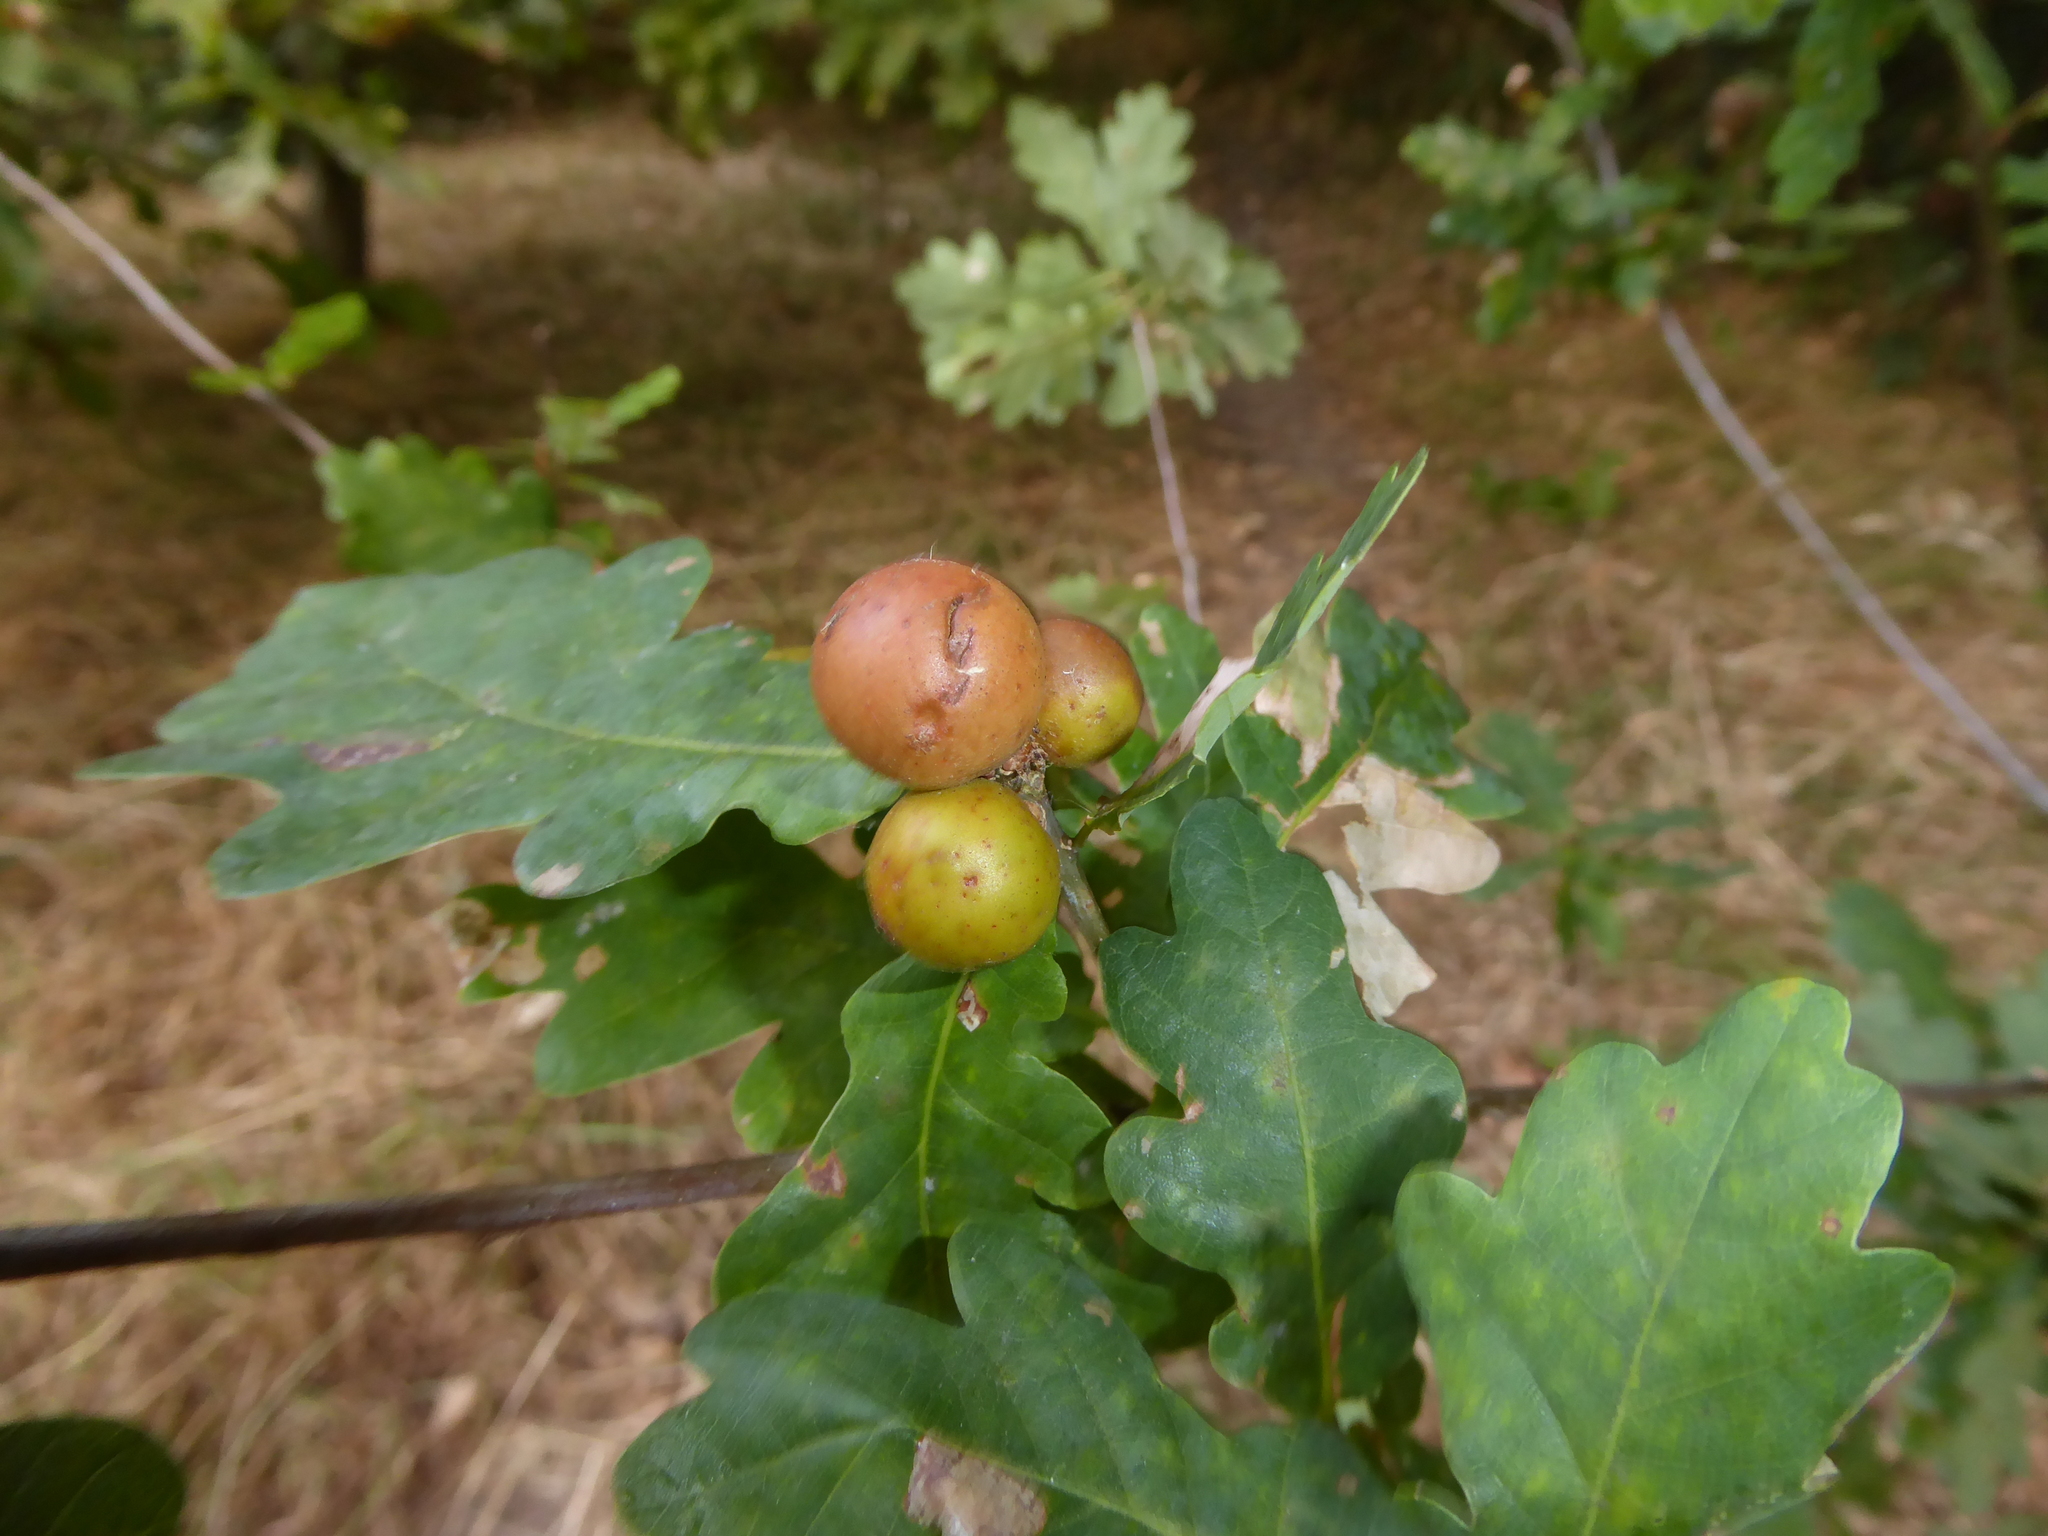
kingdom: Animalia
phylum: Arthropoda
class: Insecta
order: Hymenoptera
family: Cynipidae
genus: Andricus
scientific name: Andricus kollari
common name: Marble gall
